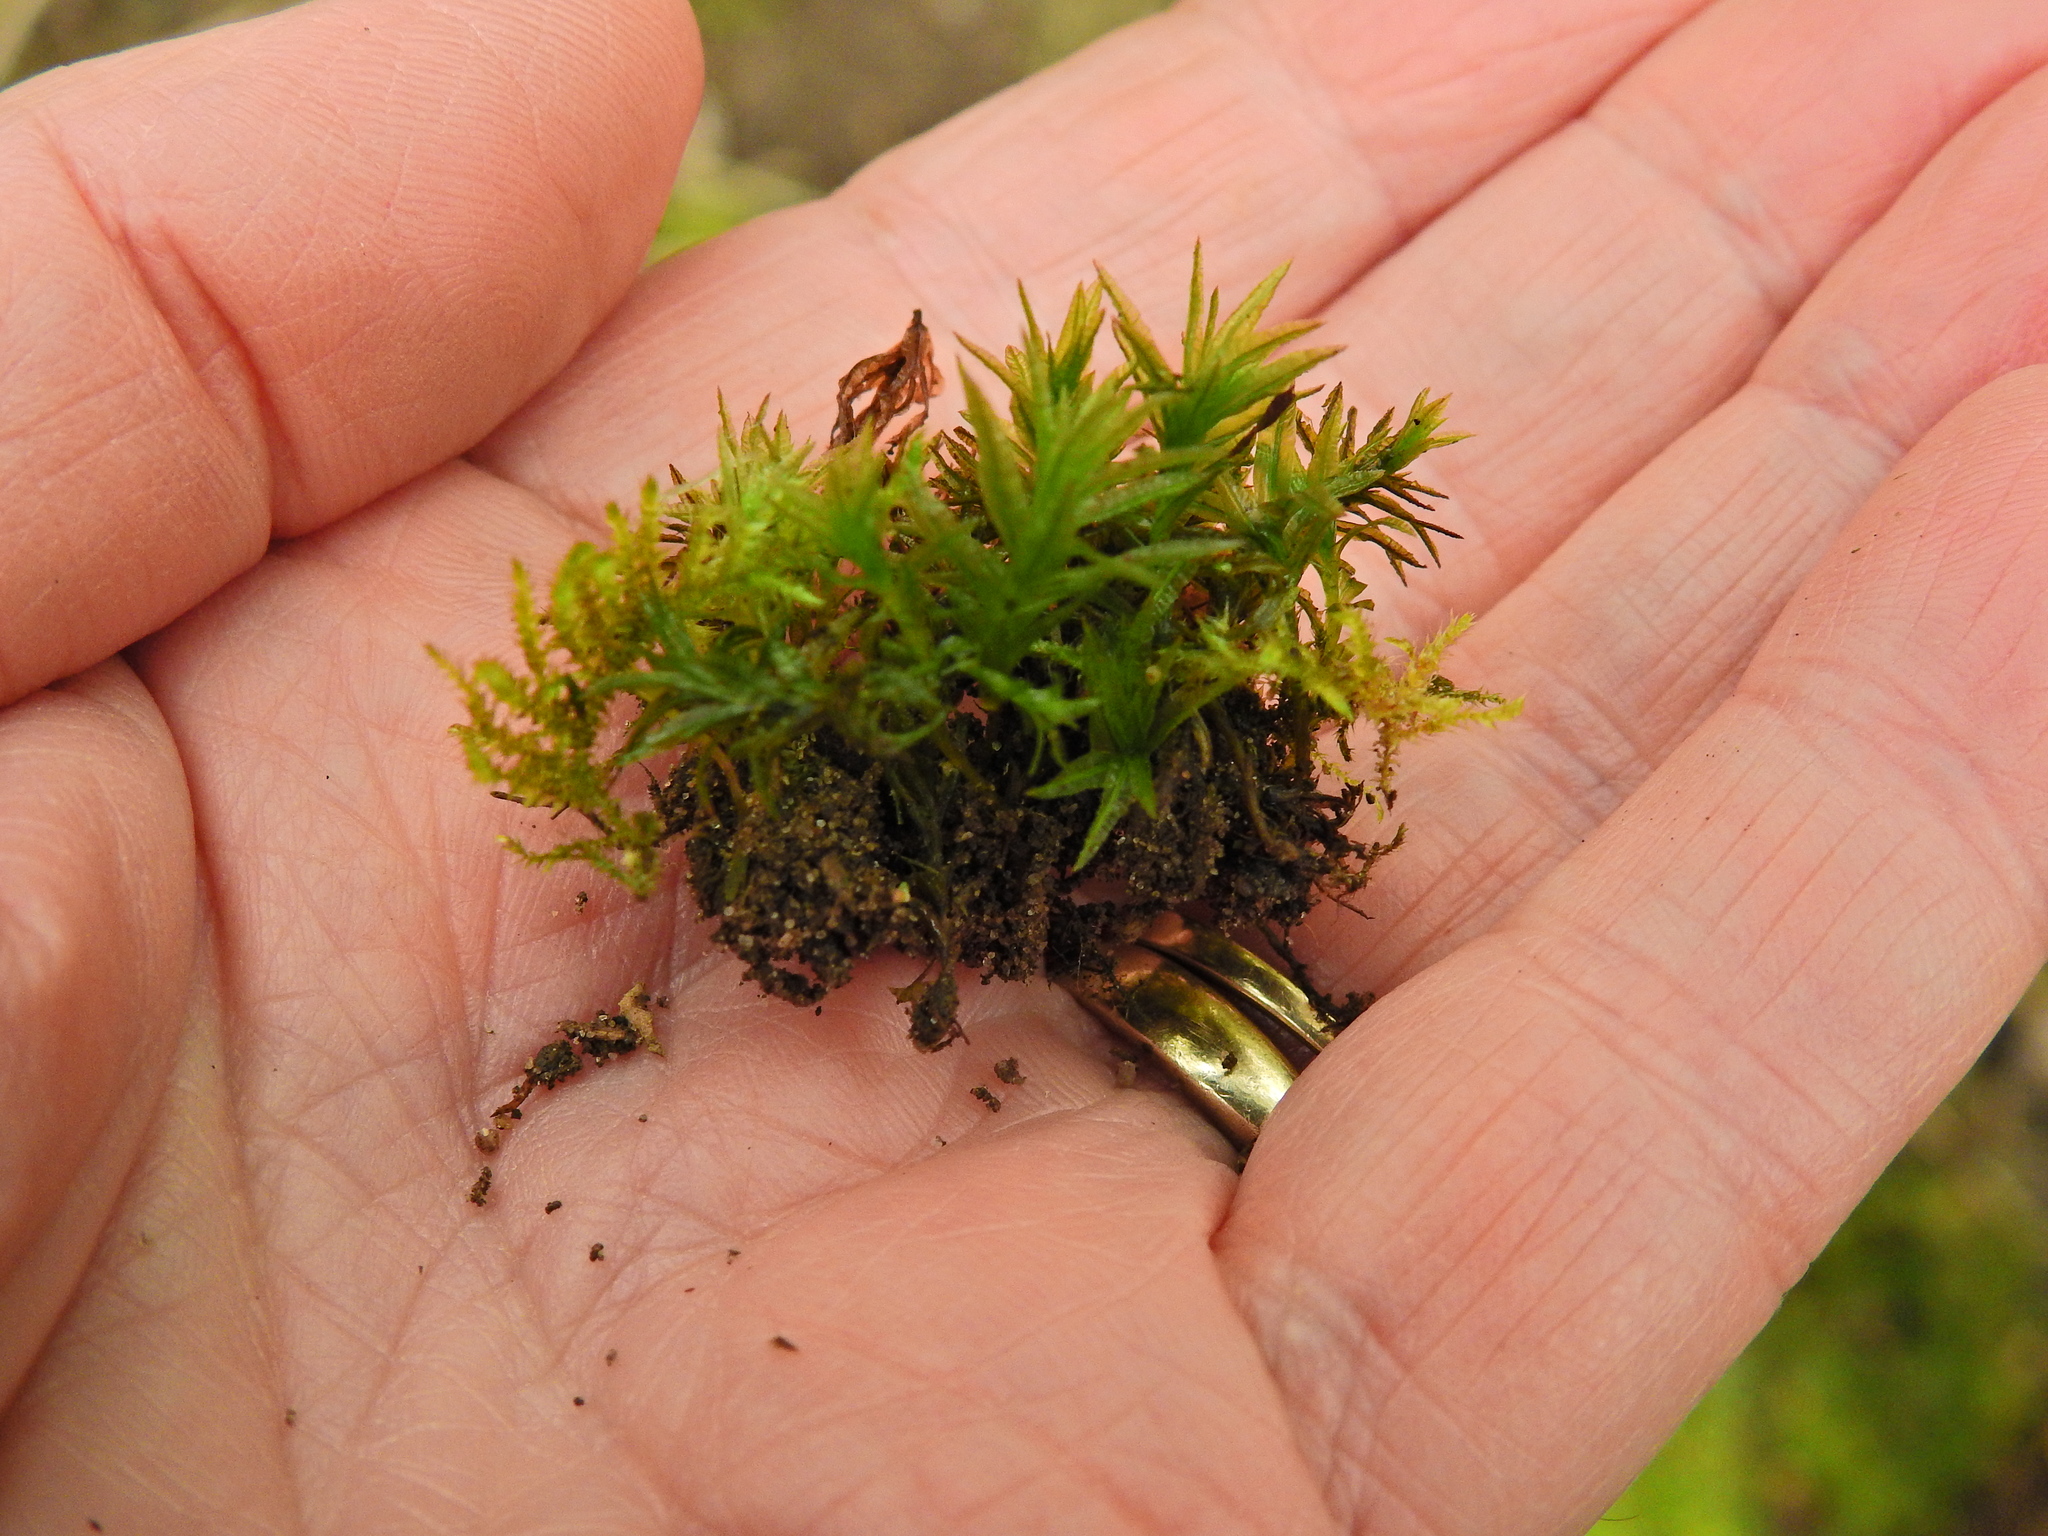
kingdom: Plantae
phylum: Bryophyta
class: Polytrichopsida
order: Polytrichales
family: Polytrichaceae
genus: Atrichum
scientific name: Atrichum undulatum
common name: Common smoothcap
